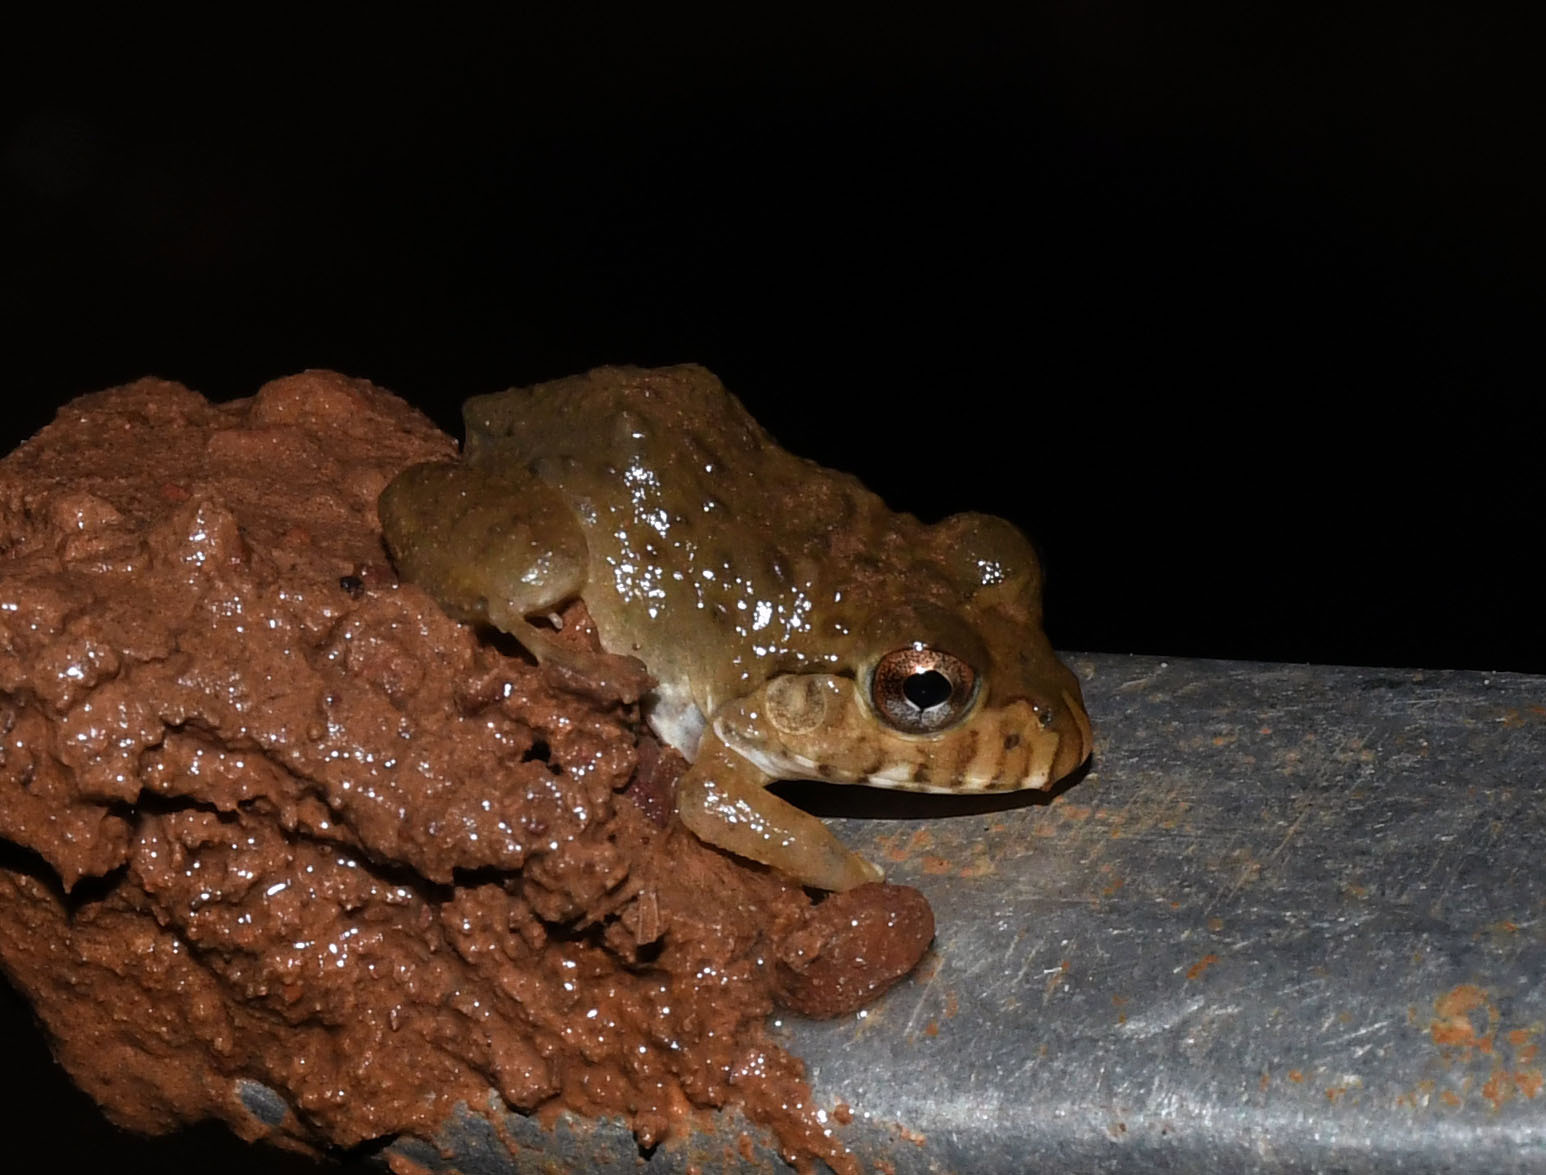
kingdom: Animalia
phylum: Chordata
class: Amphibia
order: Anura
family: Leptodactylidae
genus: Leptodactylus
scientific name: Leptodactylus labyrinthicus
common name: Labyrinth frog
